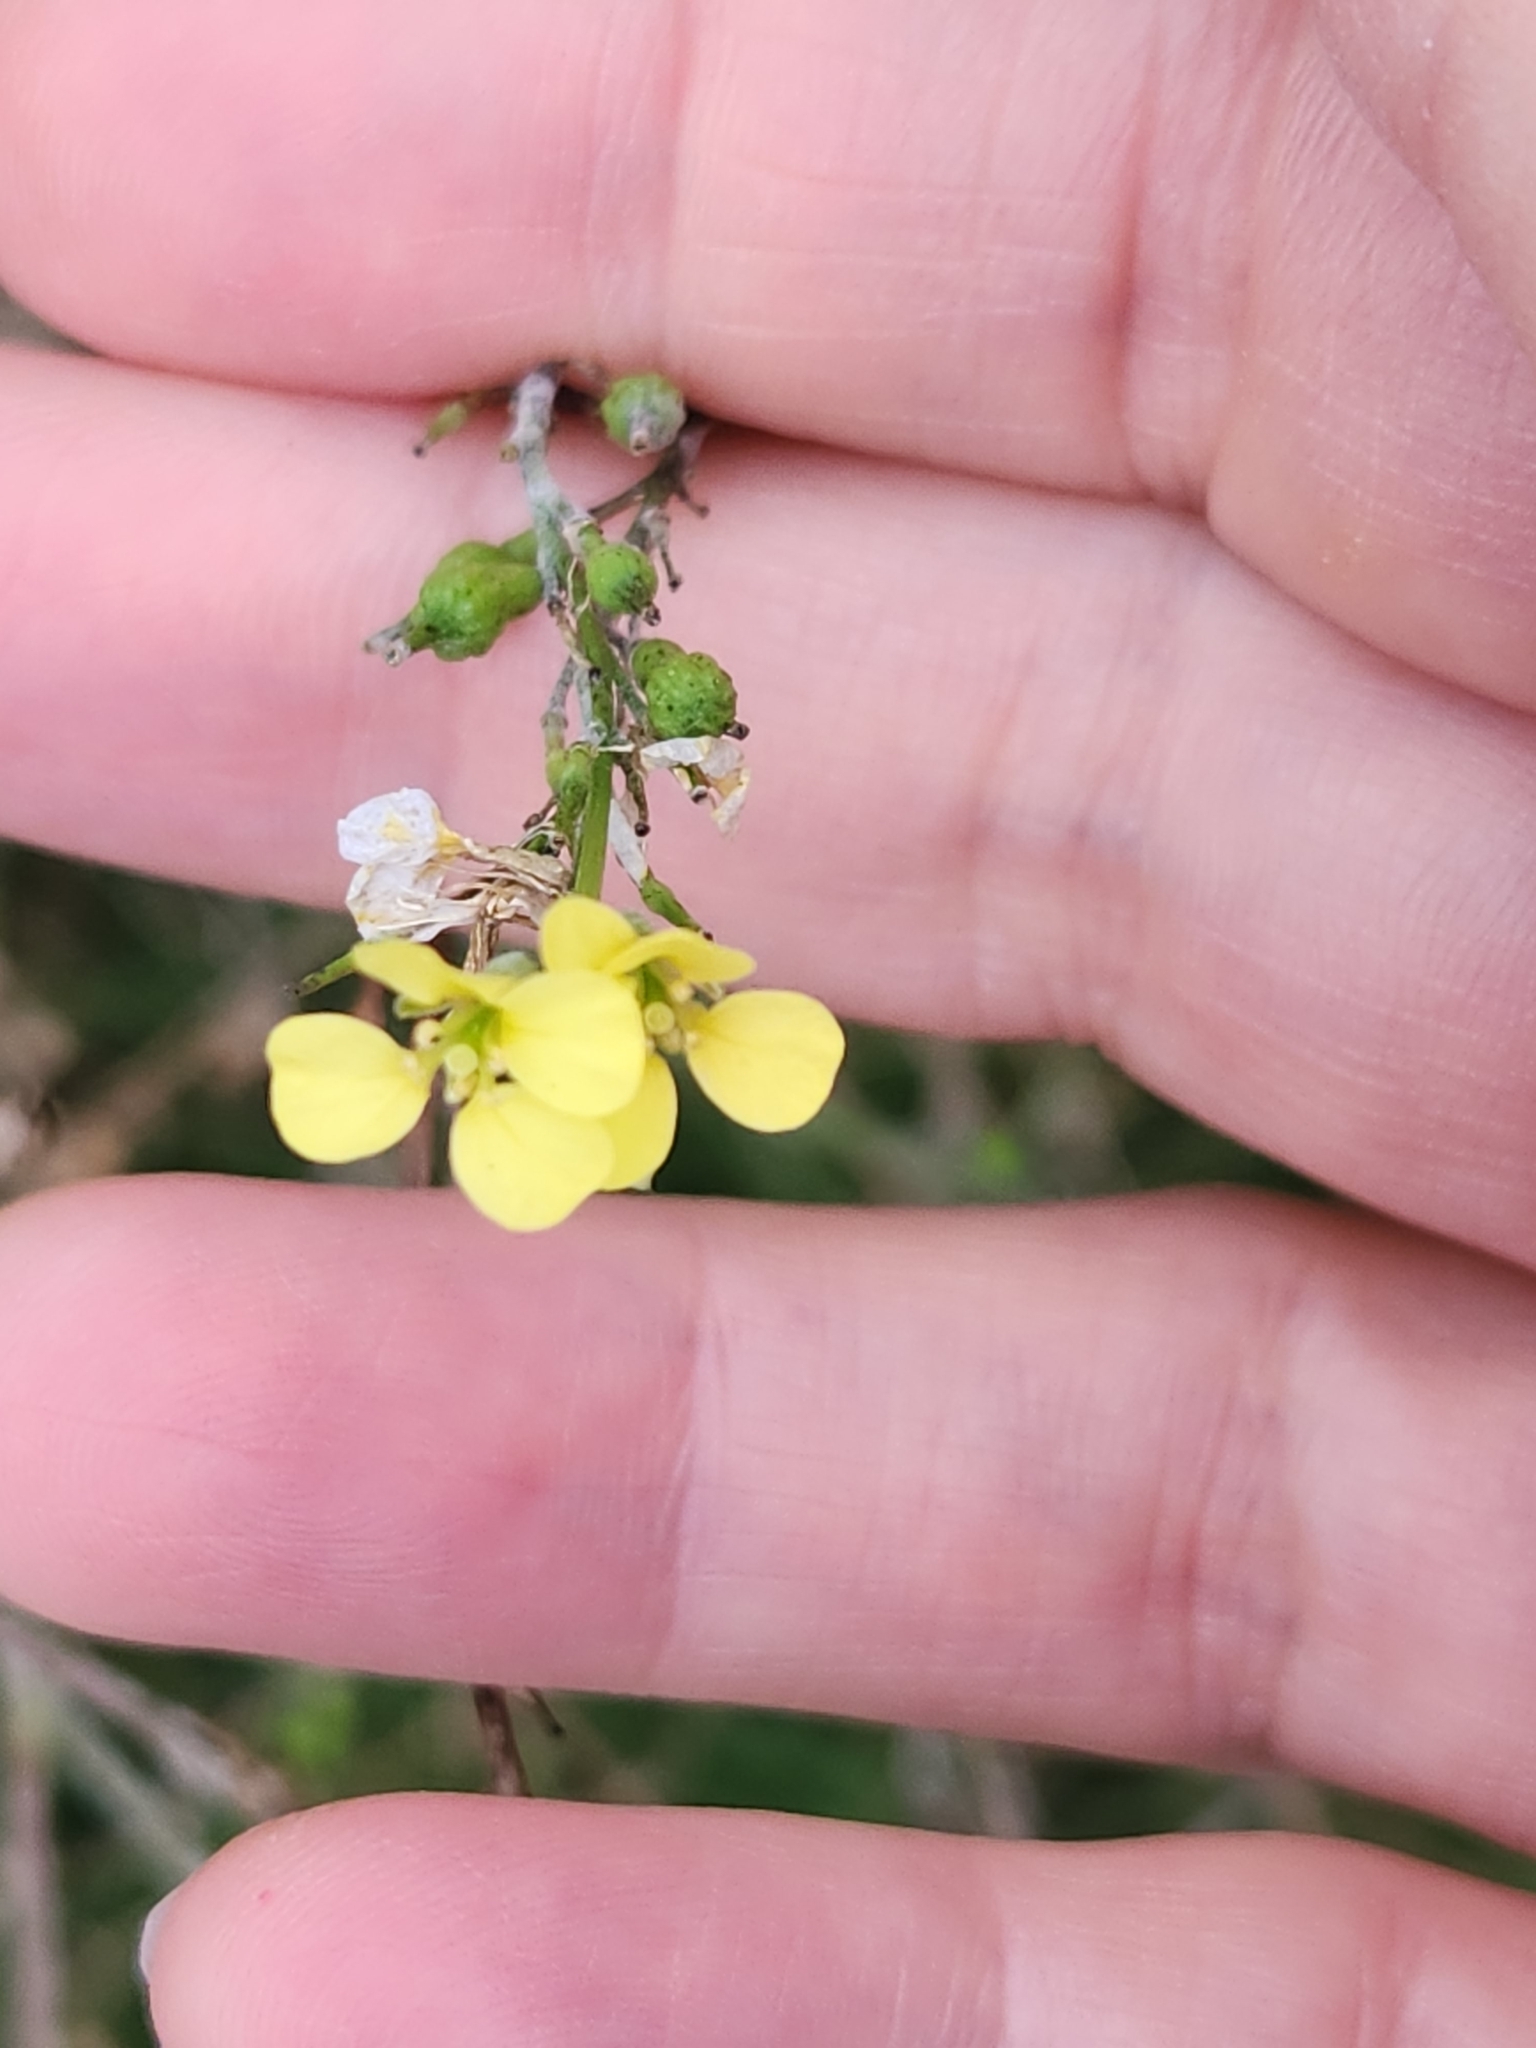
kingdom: Plantae
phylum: Tracheophyta
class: Magnoliopsida
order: Brassicales
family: Brassicaceae
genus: Rapistrum
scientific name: Rapistrum rugosum
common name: Annual bastardcabbage
